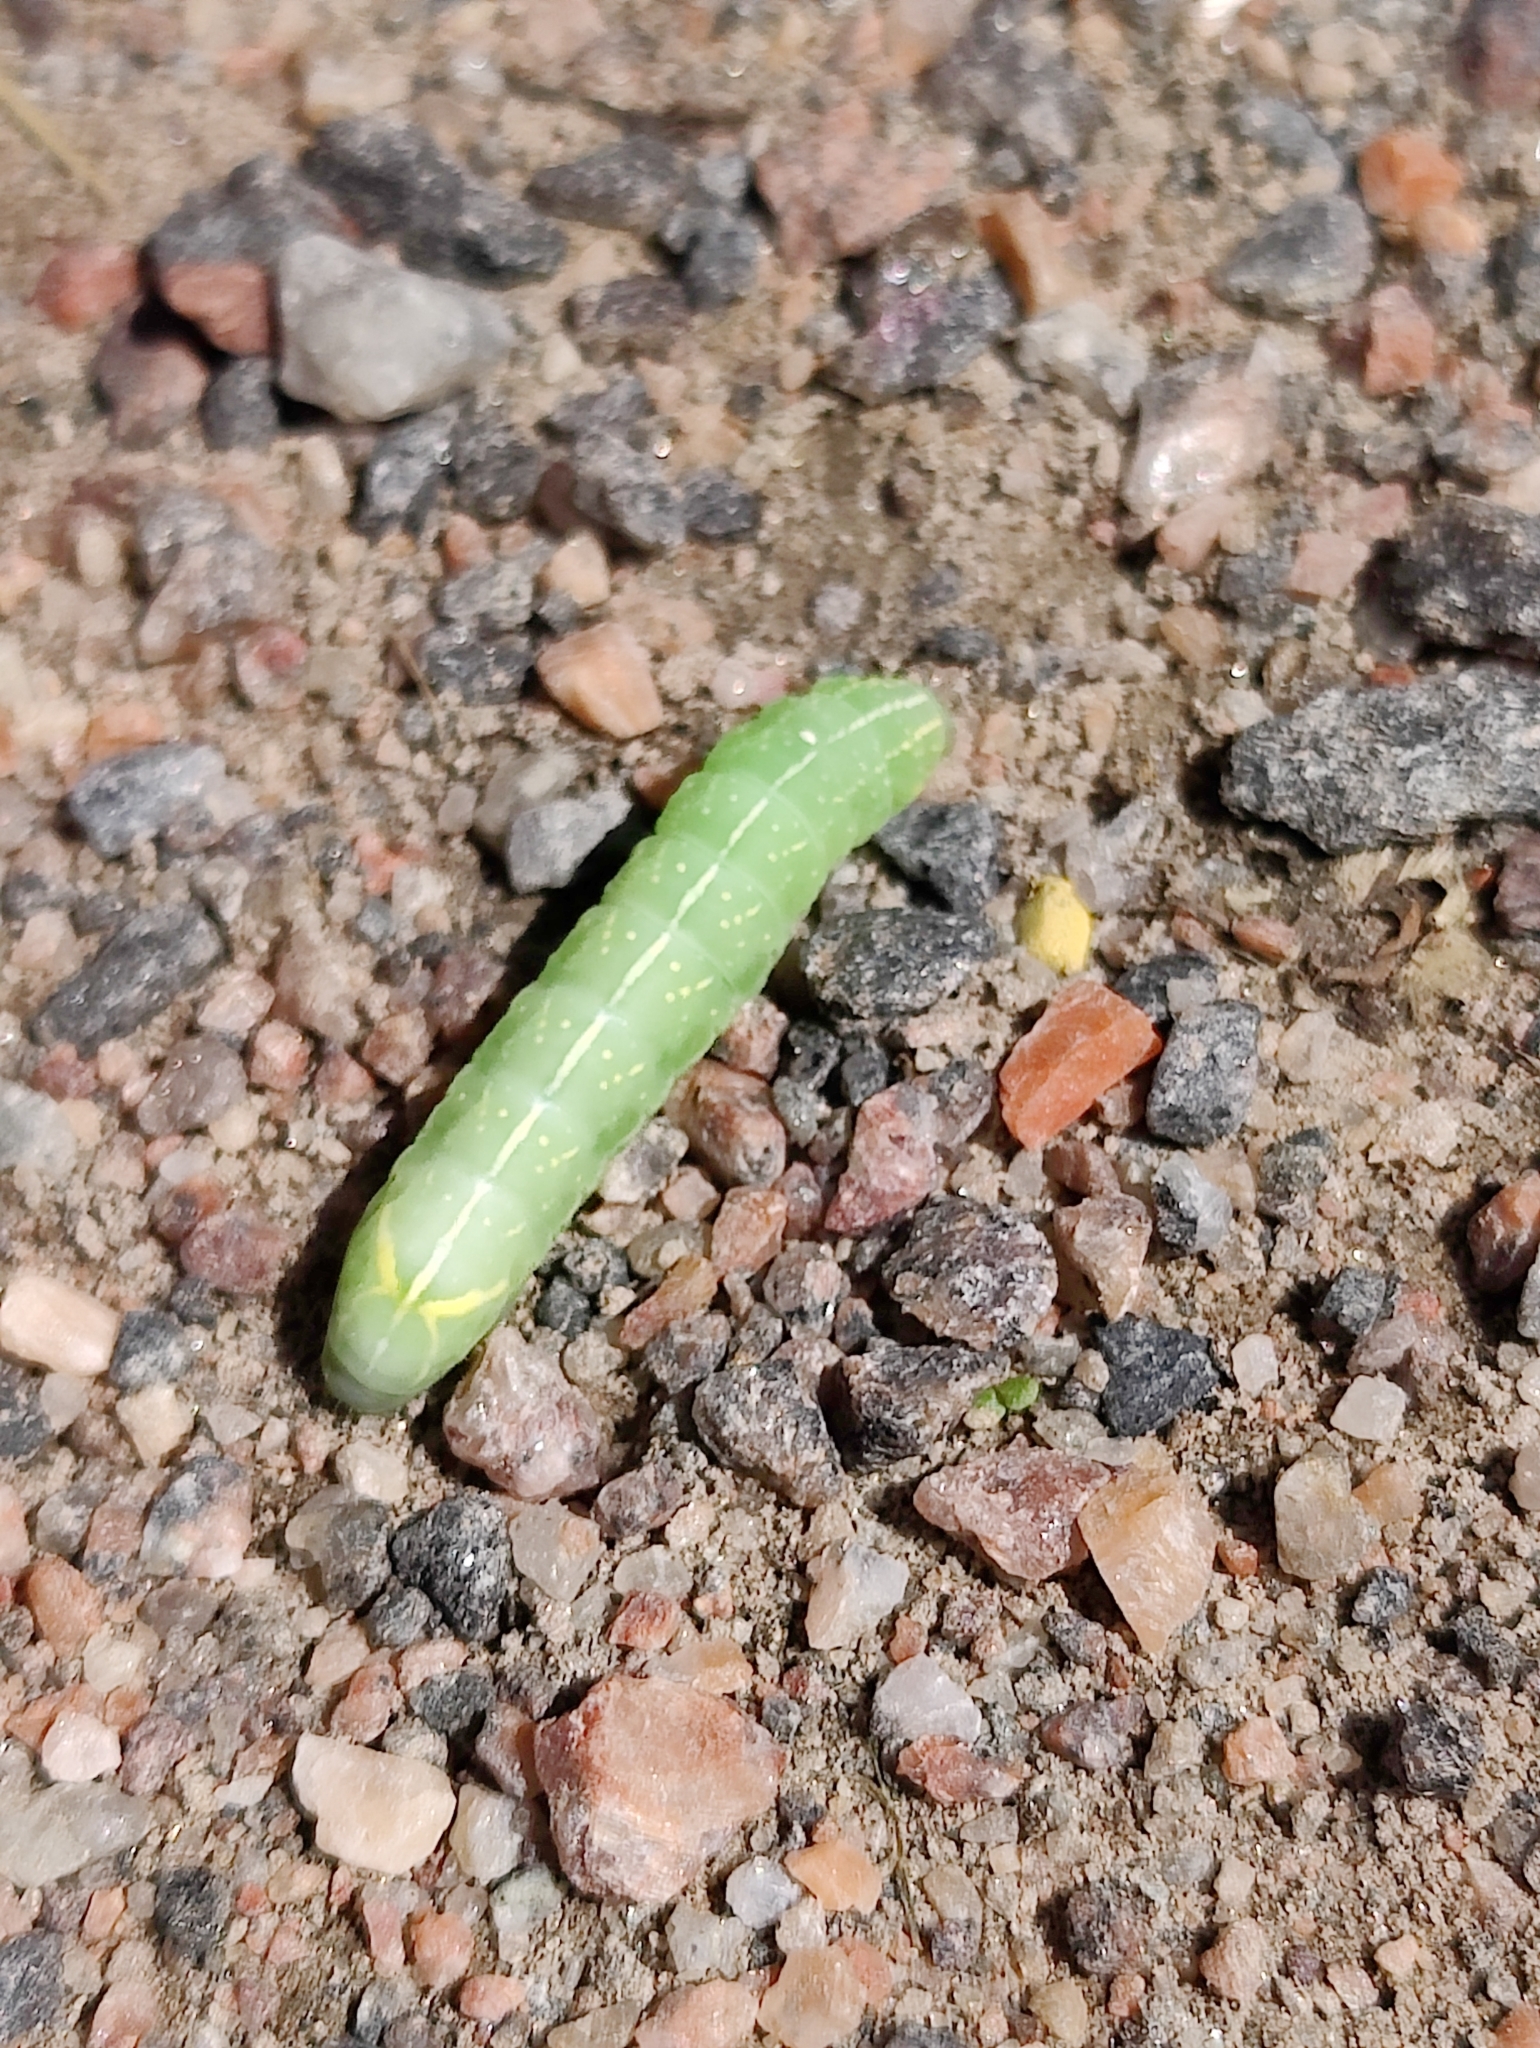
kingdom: Animalia
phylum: Arthropoda
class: Insecta
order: Lepidoptera
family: Noctuidae
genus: Amphipyra
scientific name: Amphipyra perflua
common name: Larger pale-tipped black moth
